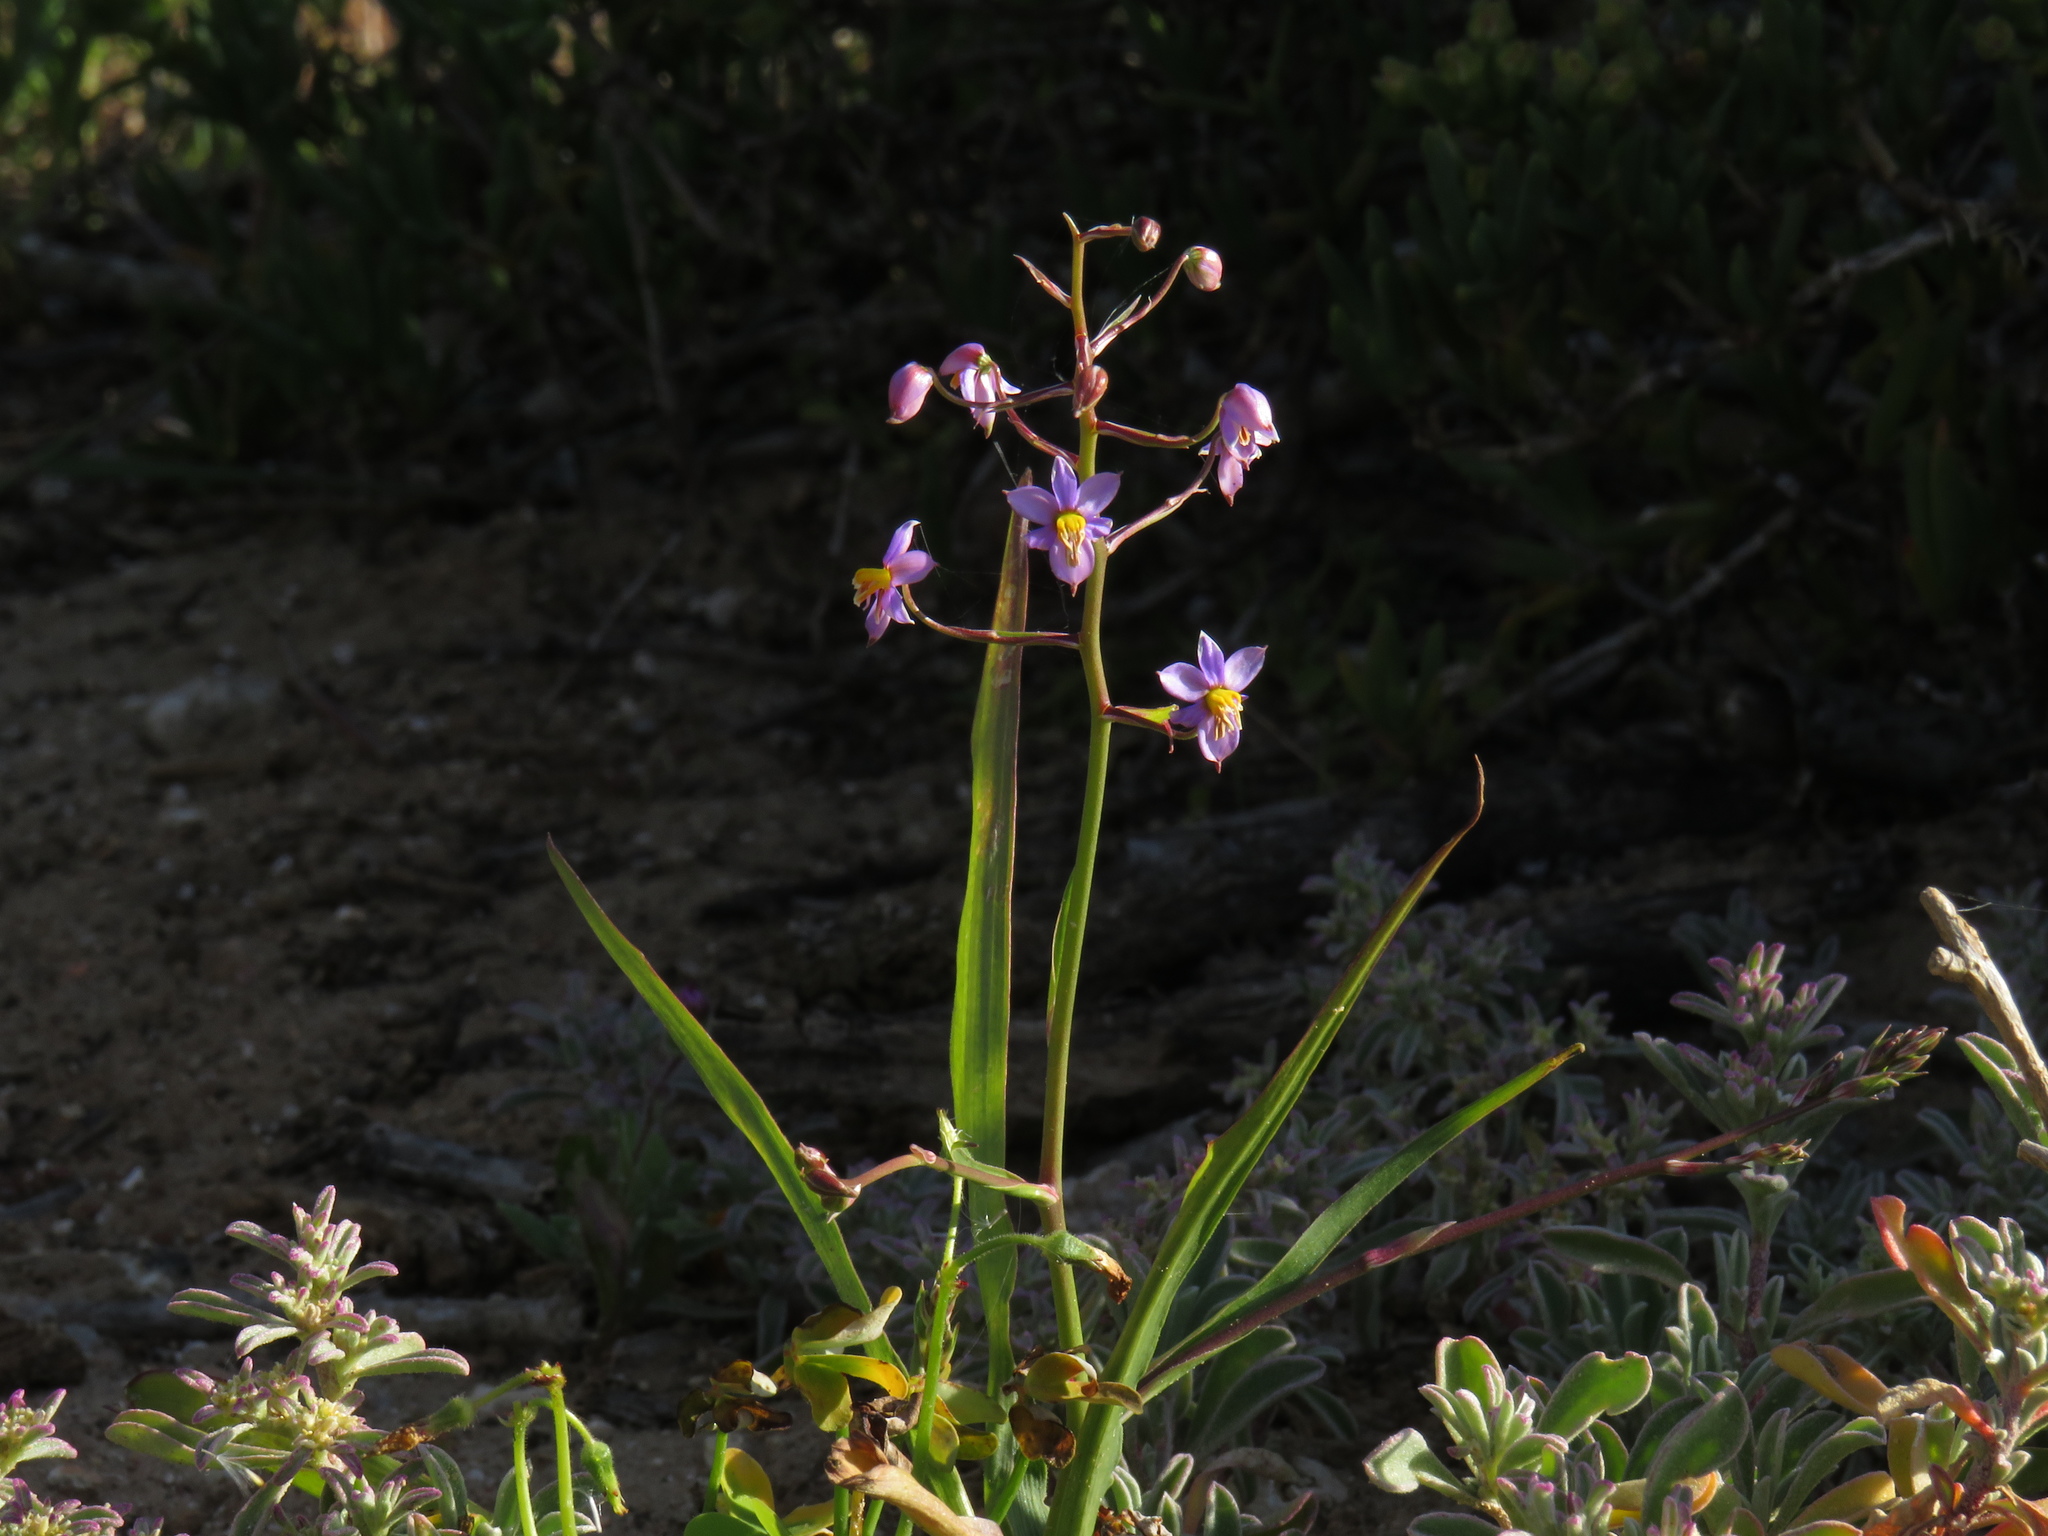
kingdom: Plantae
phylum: Tracheophyta
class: Liliopsida
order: Asparagales
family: Tecophilaeaceae
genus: Cyanella
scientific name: Cyanella hyacinthoides
